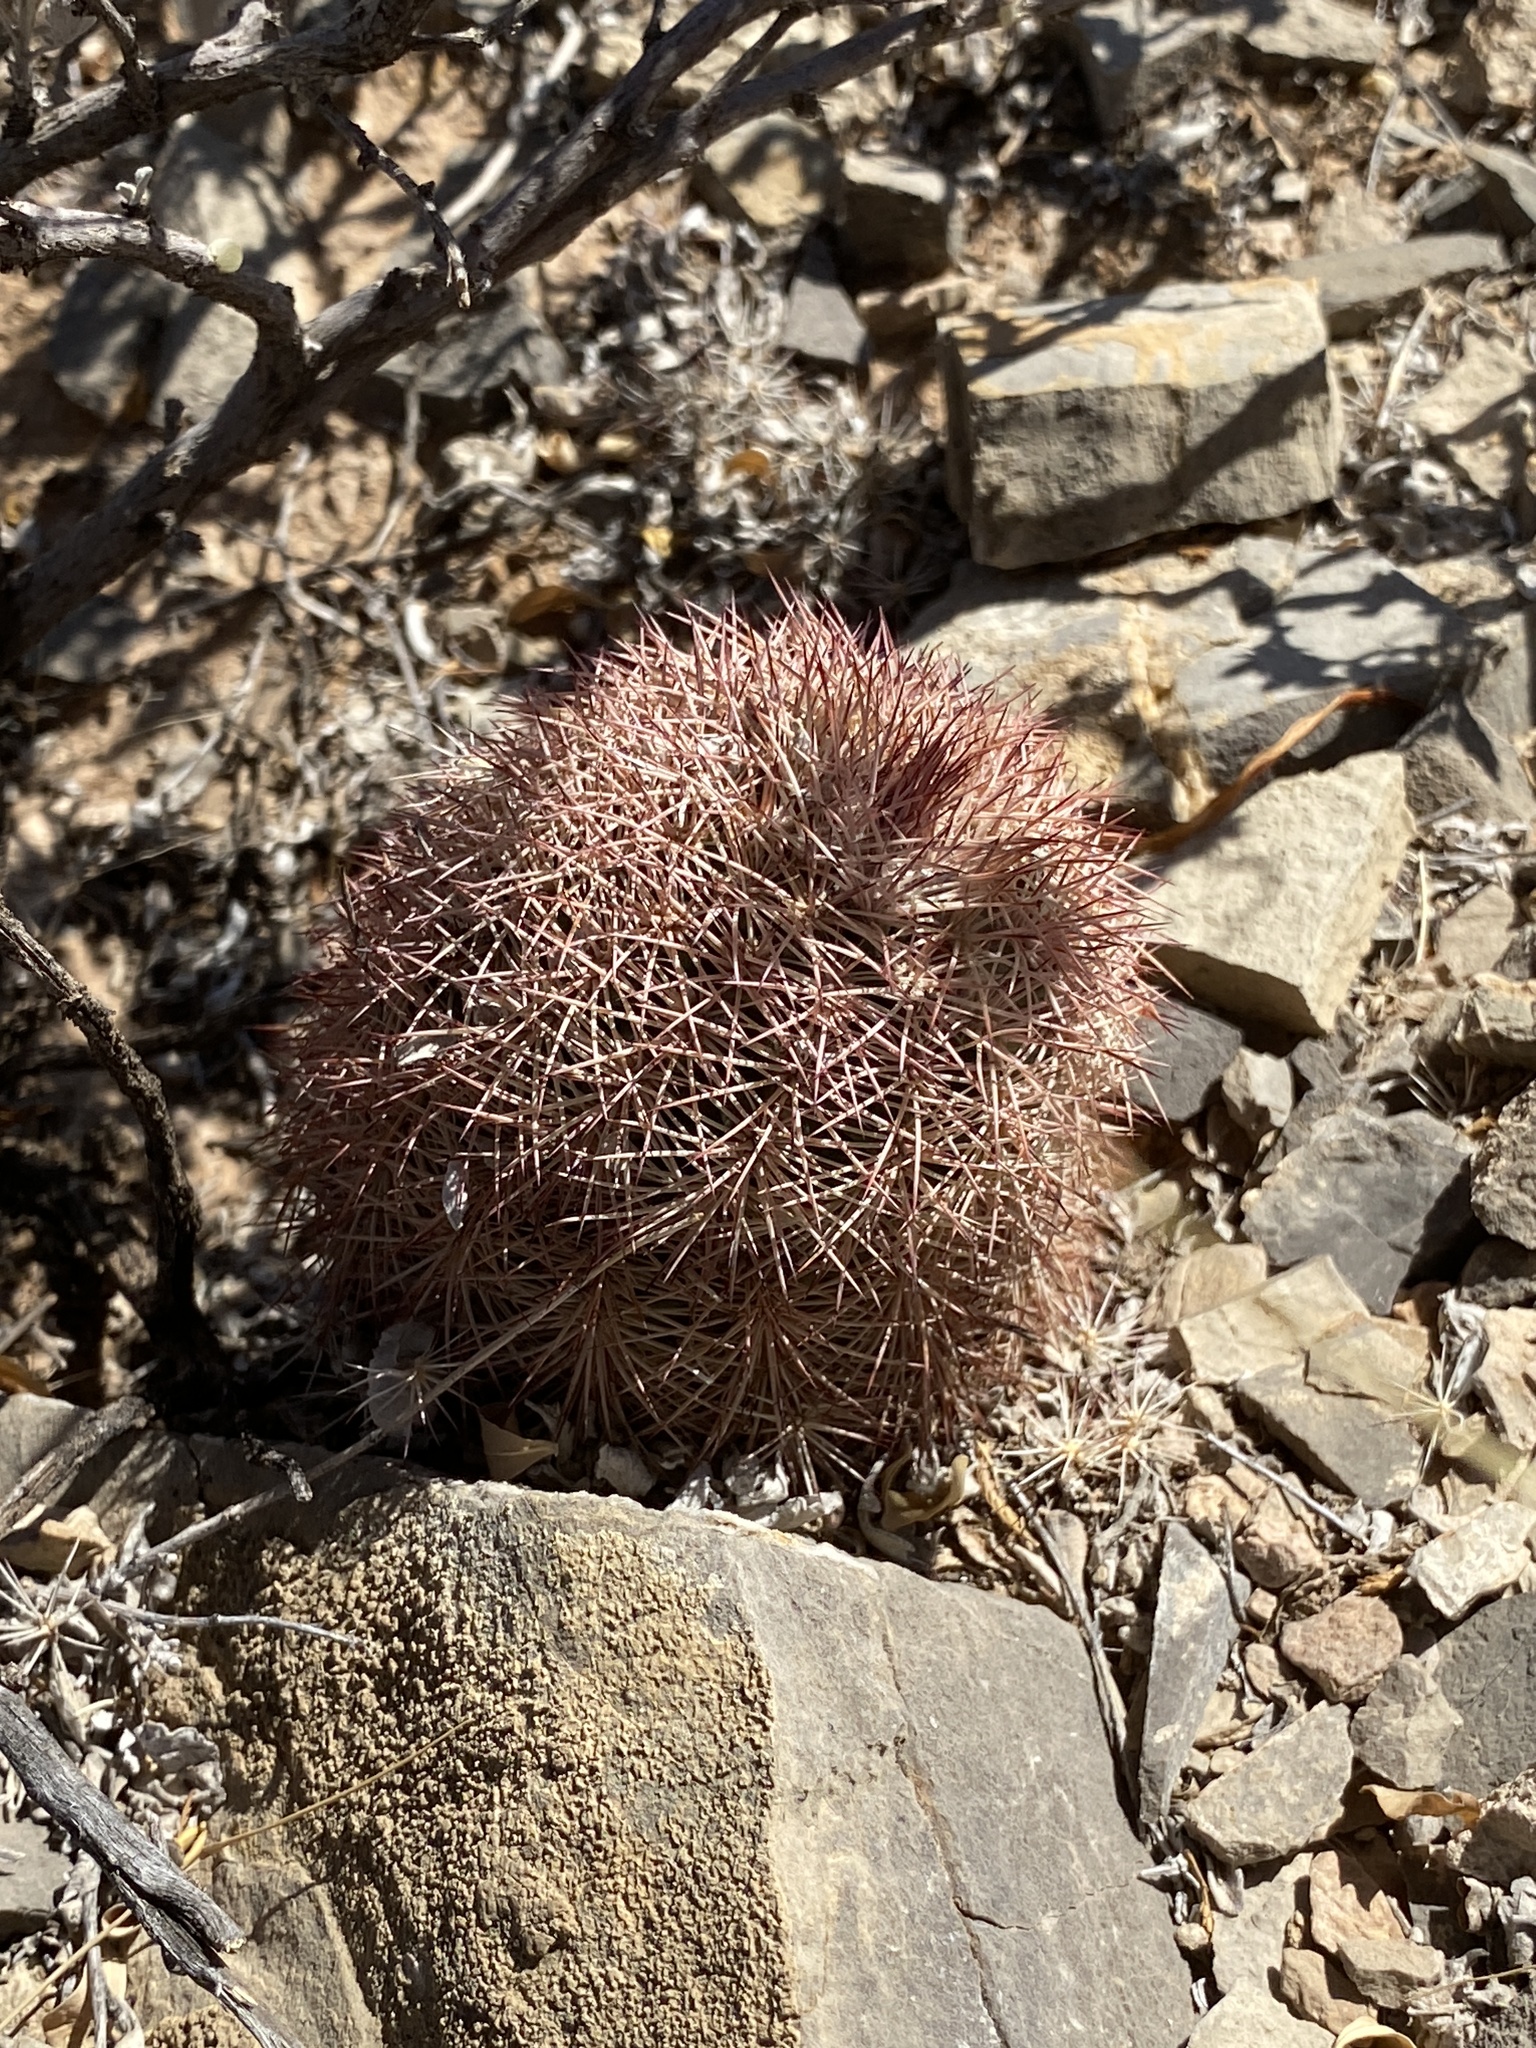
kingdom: Plantae
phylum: Tracheophyta
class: Magnoliopsida
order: Caryophyllales
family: Cactaceae
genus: Echinocereus
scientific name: Echinocereus dasyacanthus
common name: Spiny hedgehog cactus
